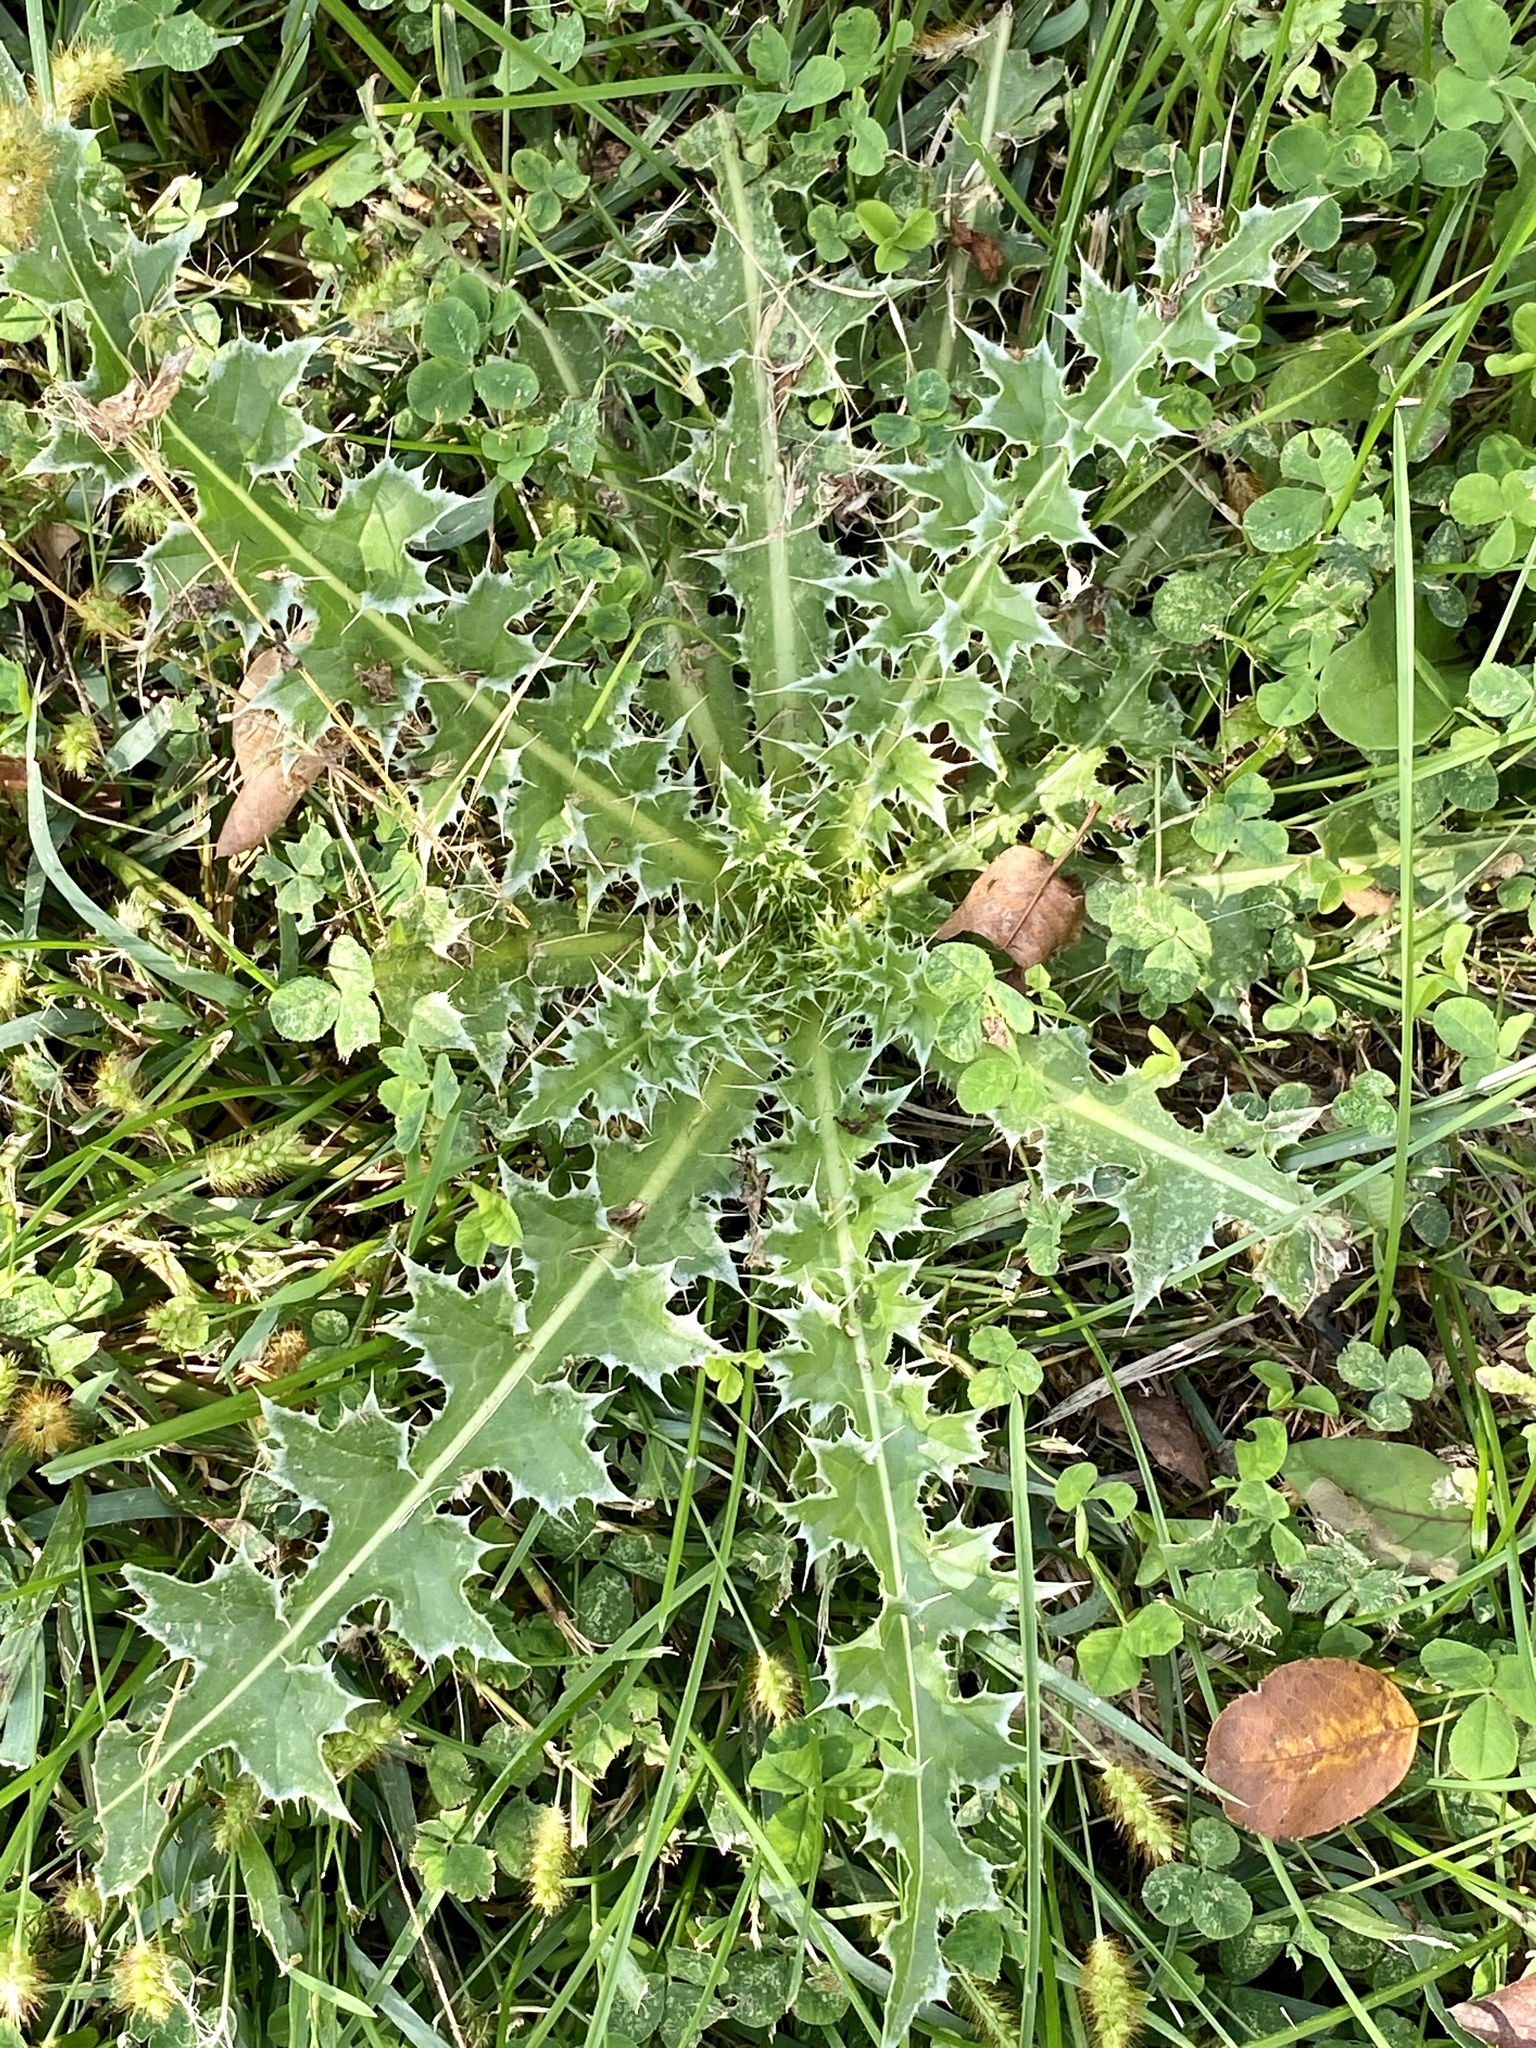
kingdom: Plantae
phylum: Tracheophyta
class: Magnoliopsida
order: Asterales
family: Asteraceae
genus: Carduus
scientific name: Carduus nutans
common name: Musk thistle
